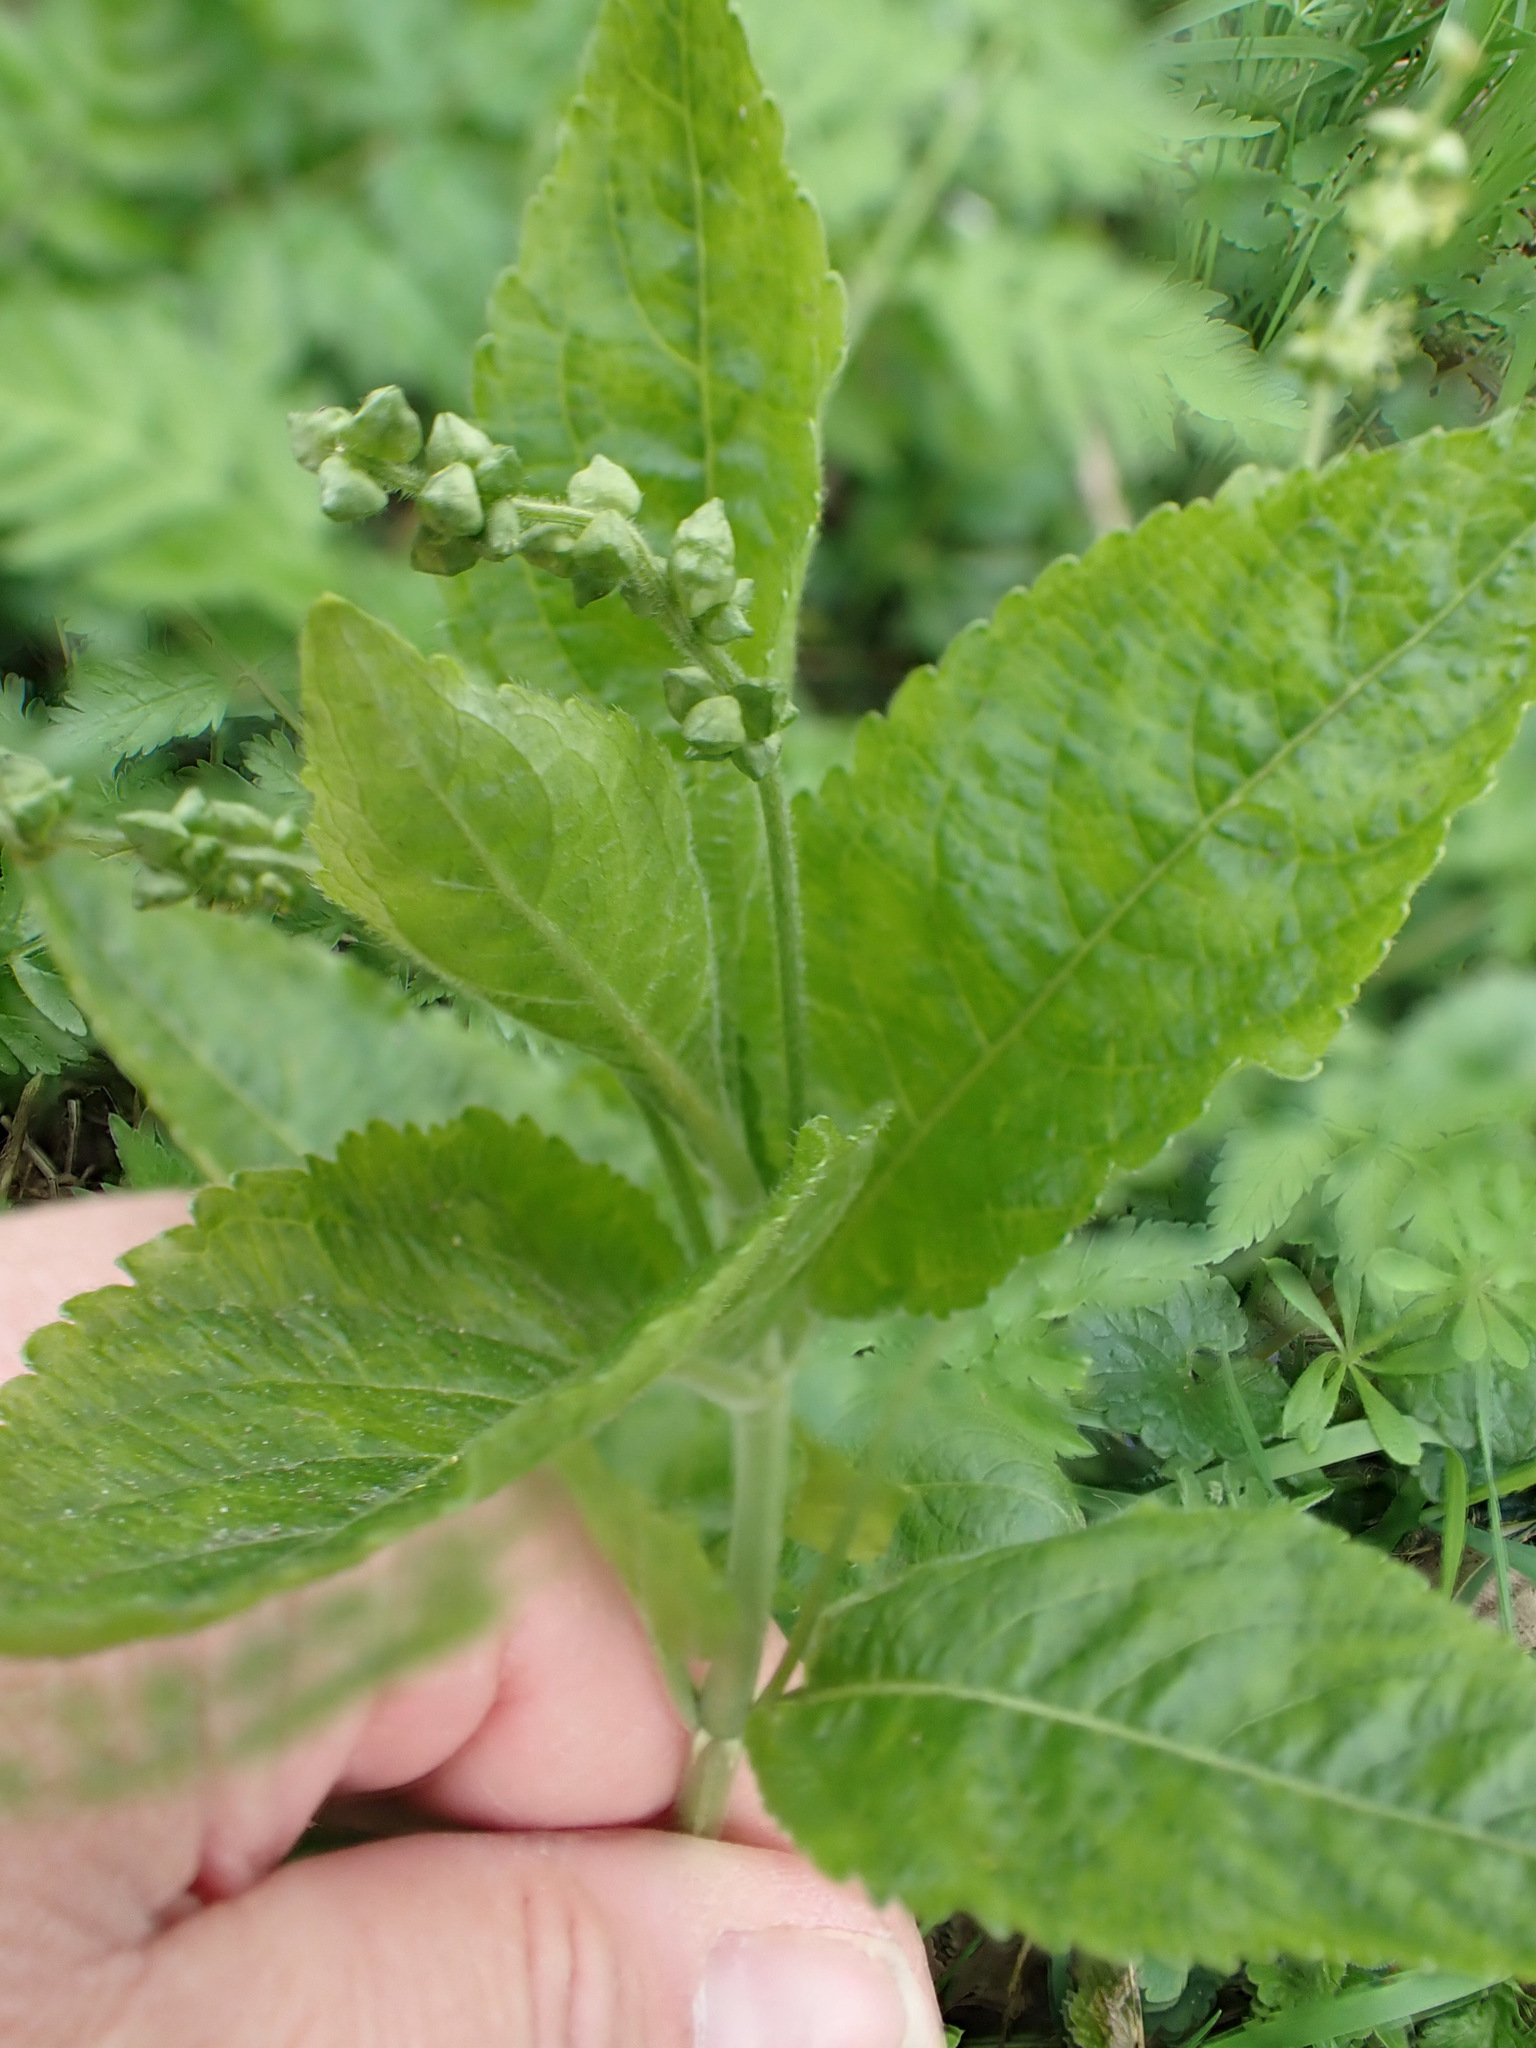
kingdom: Plantae
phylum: Tracheophyta
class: Magnoliopsida
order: Malpighiales
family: Euphorbiaceae
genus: Mercurialis
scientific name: Mercurialis perennis
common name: Dog mercury
